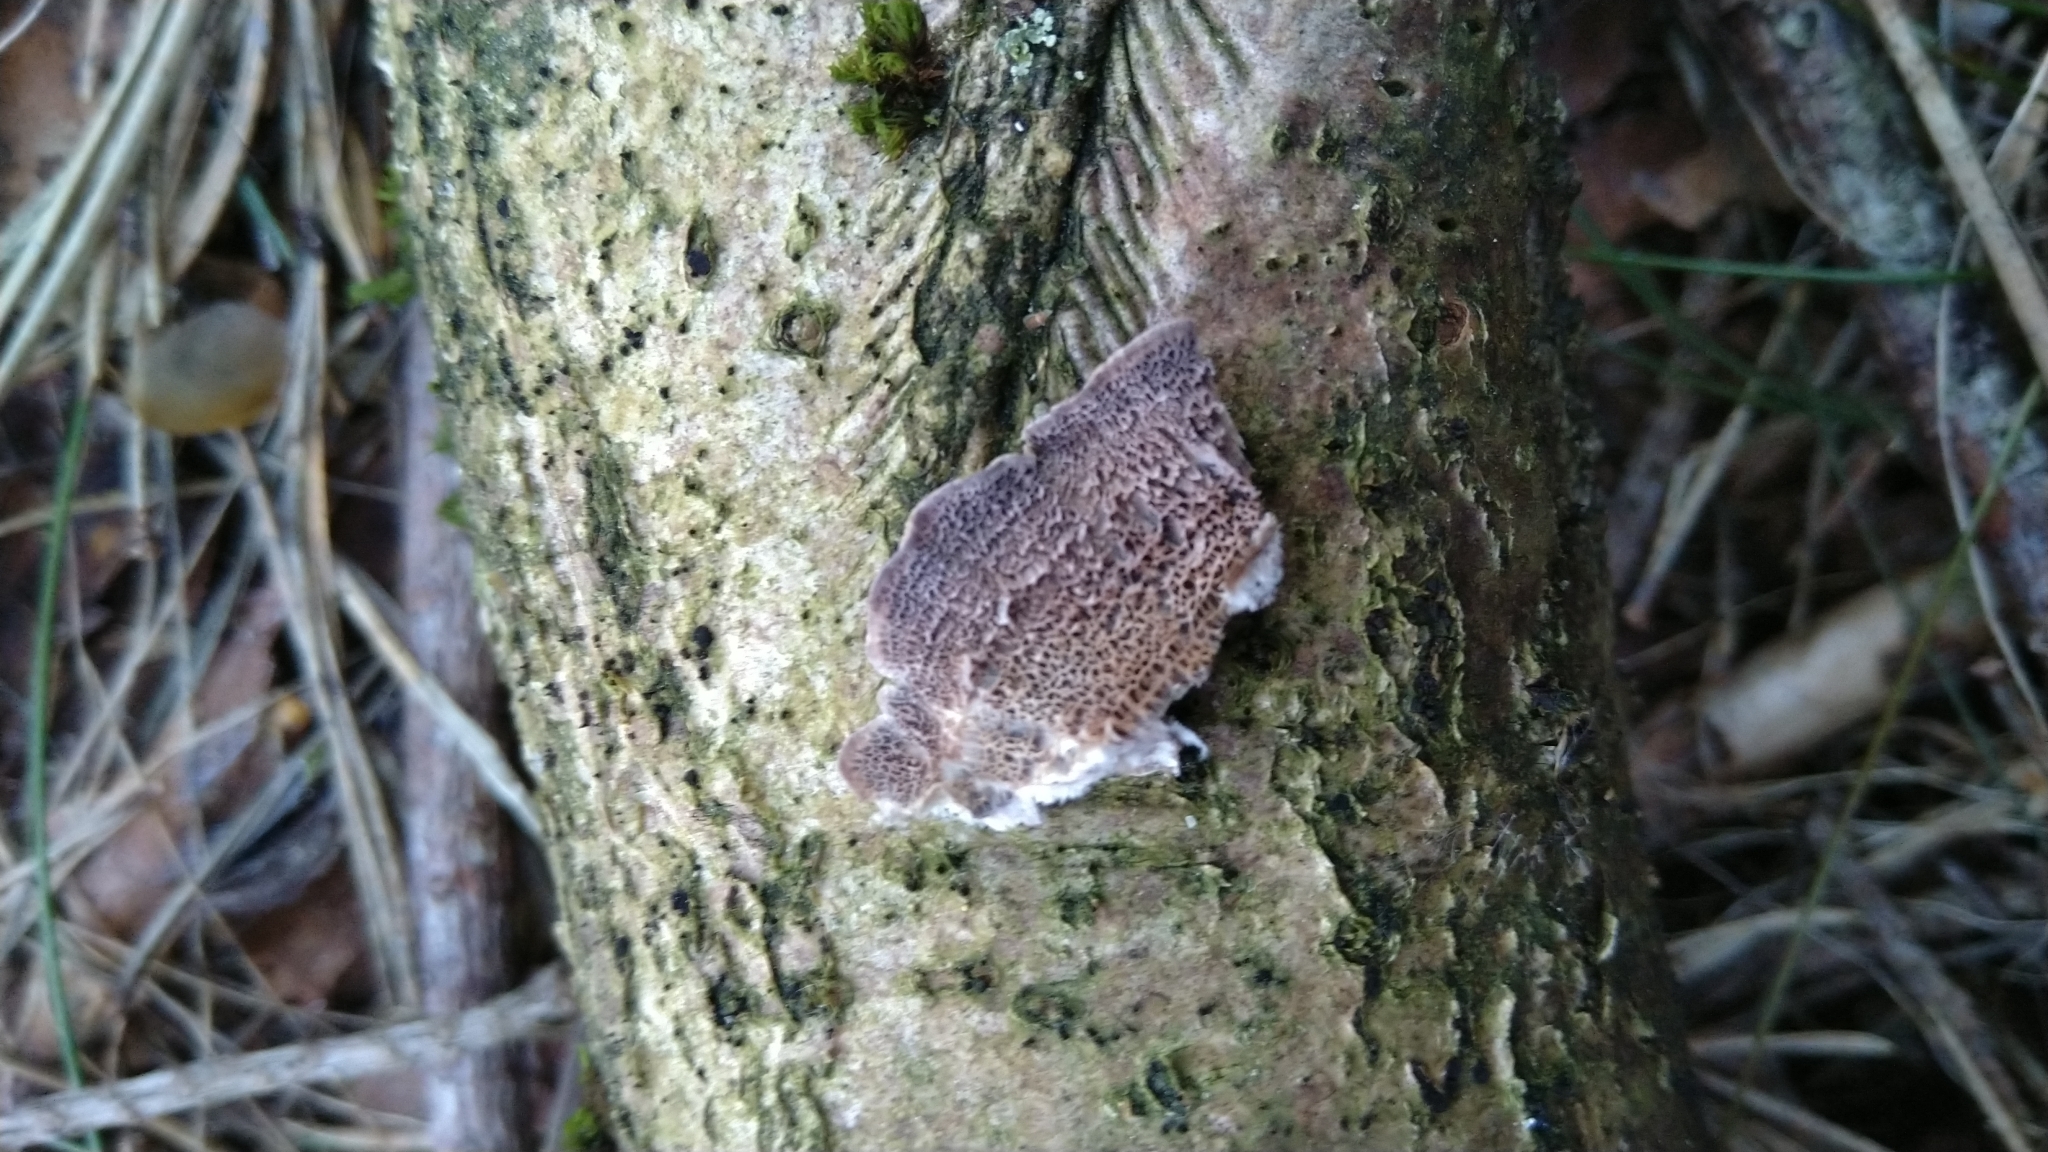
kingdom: Fungi
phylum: Basidiomycota
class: Agaricomycetes
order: Hymenochaetales
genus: Trichaptum
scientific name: Trichaptum abietinum
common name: Purplepore bracket
